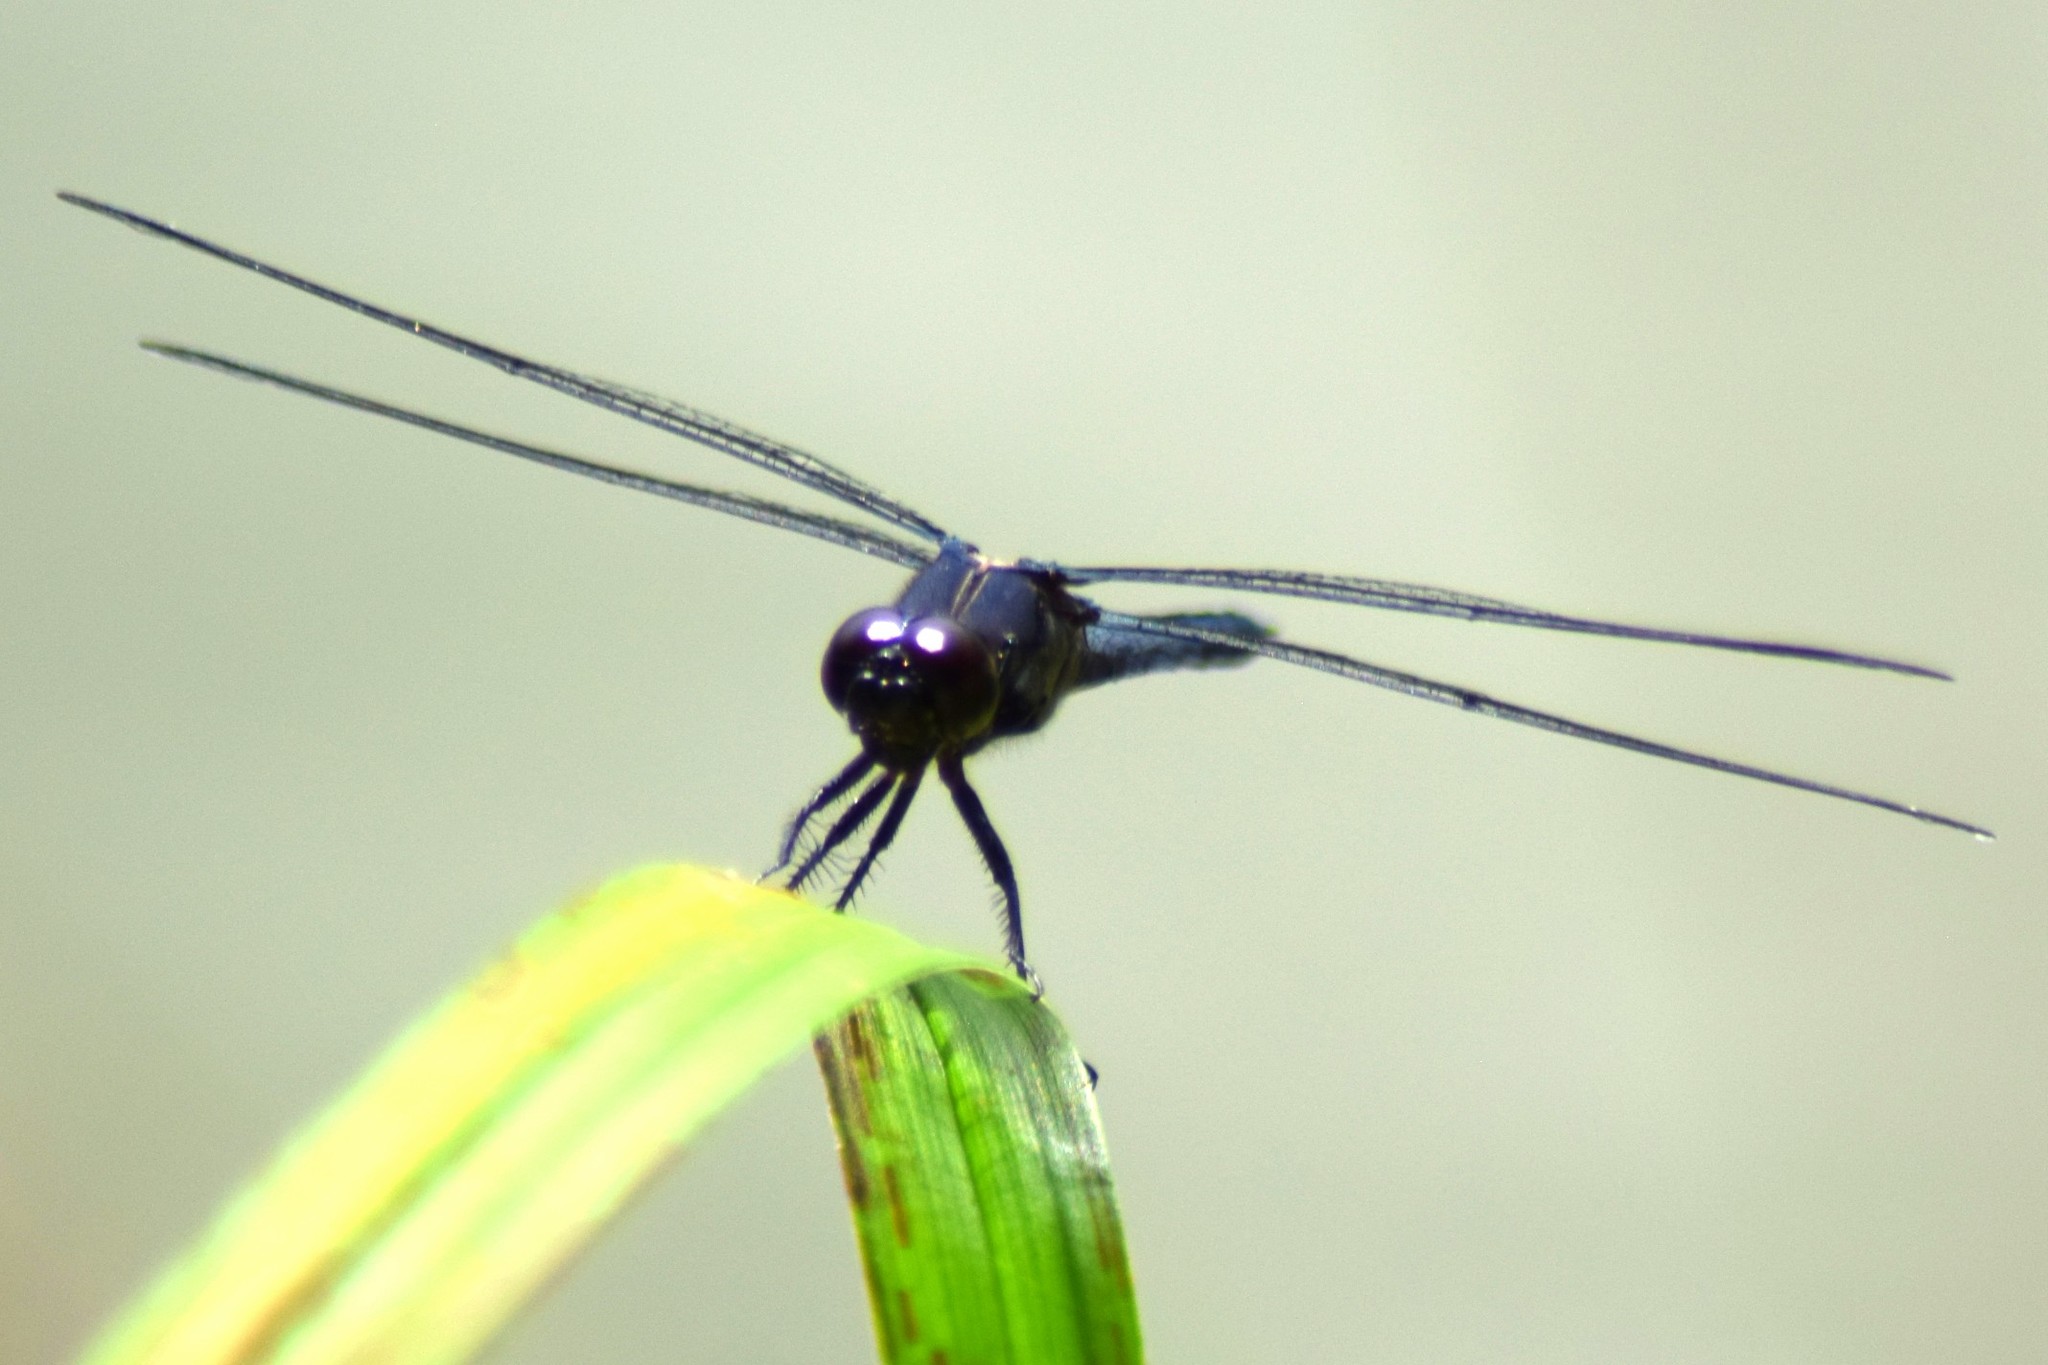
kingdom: Animalia
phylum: Arthropoda
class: Insecta
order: Odonata
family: Libellulidae
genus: Libellula
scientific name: Libellula incesta
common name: Slaty skimmer
